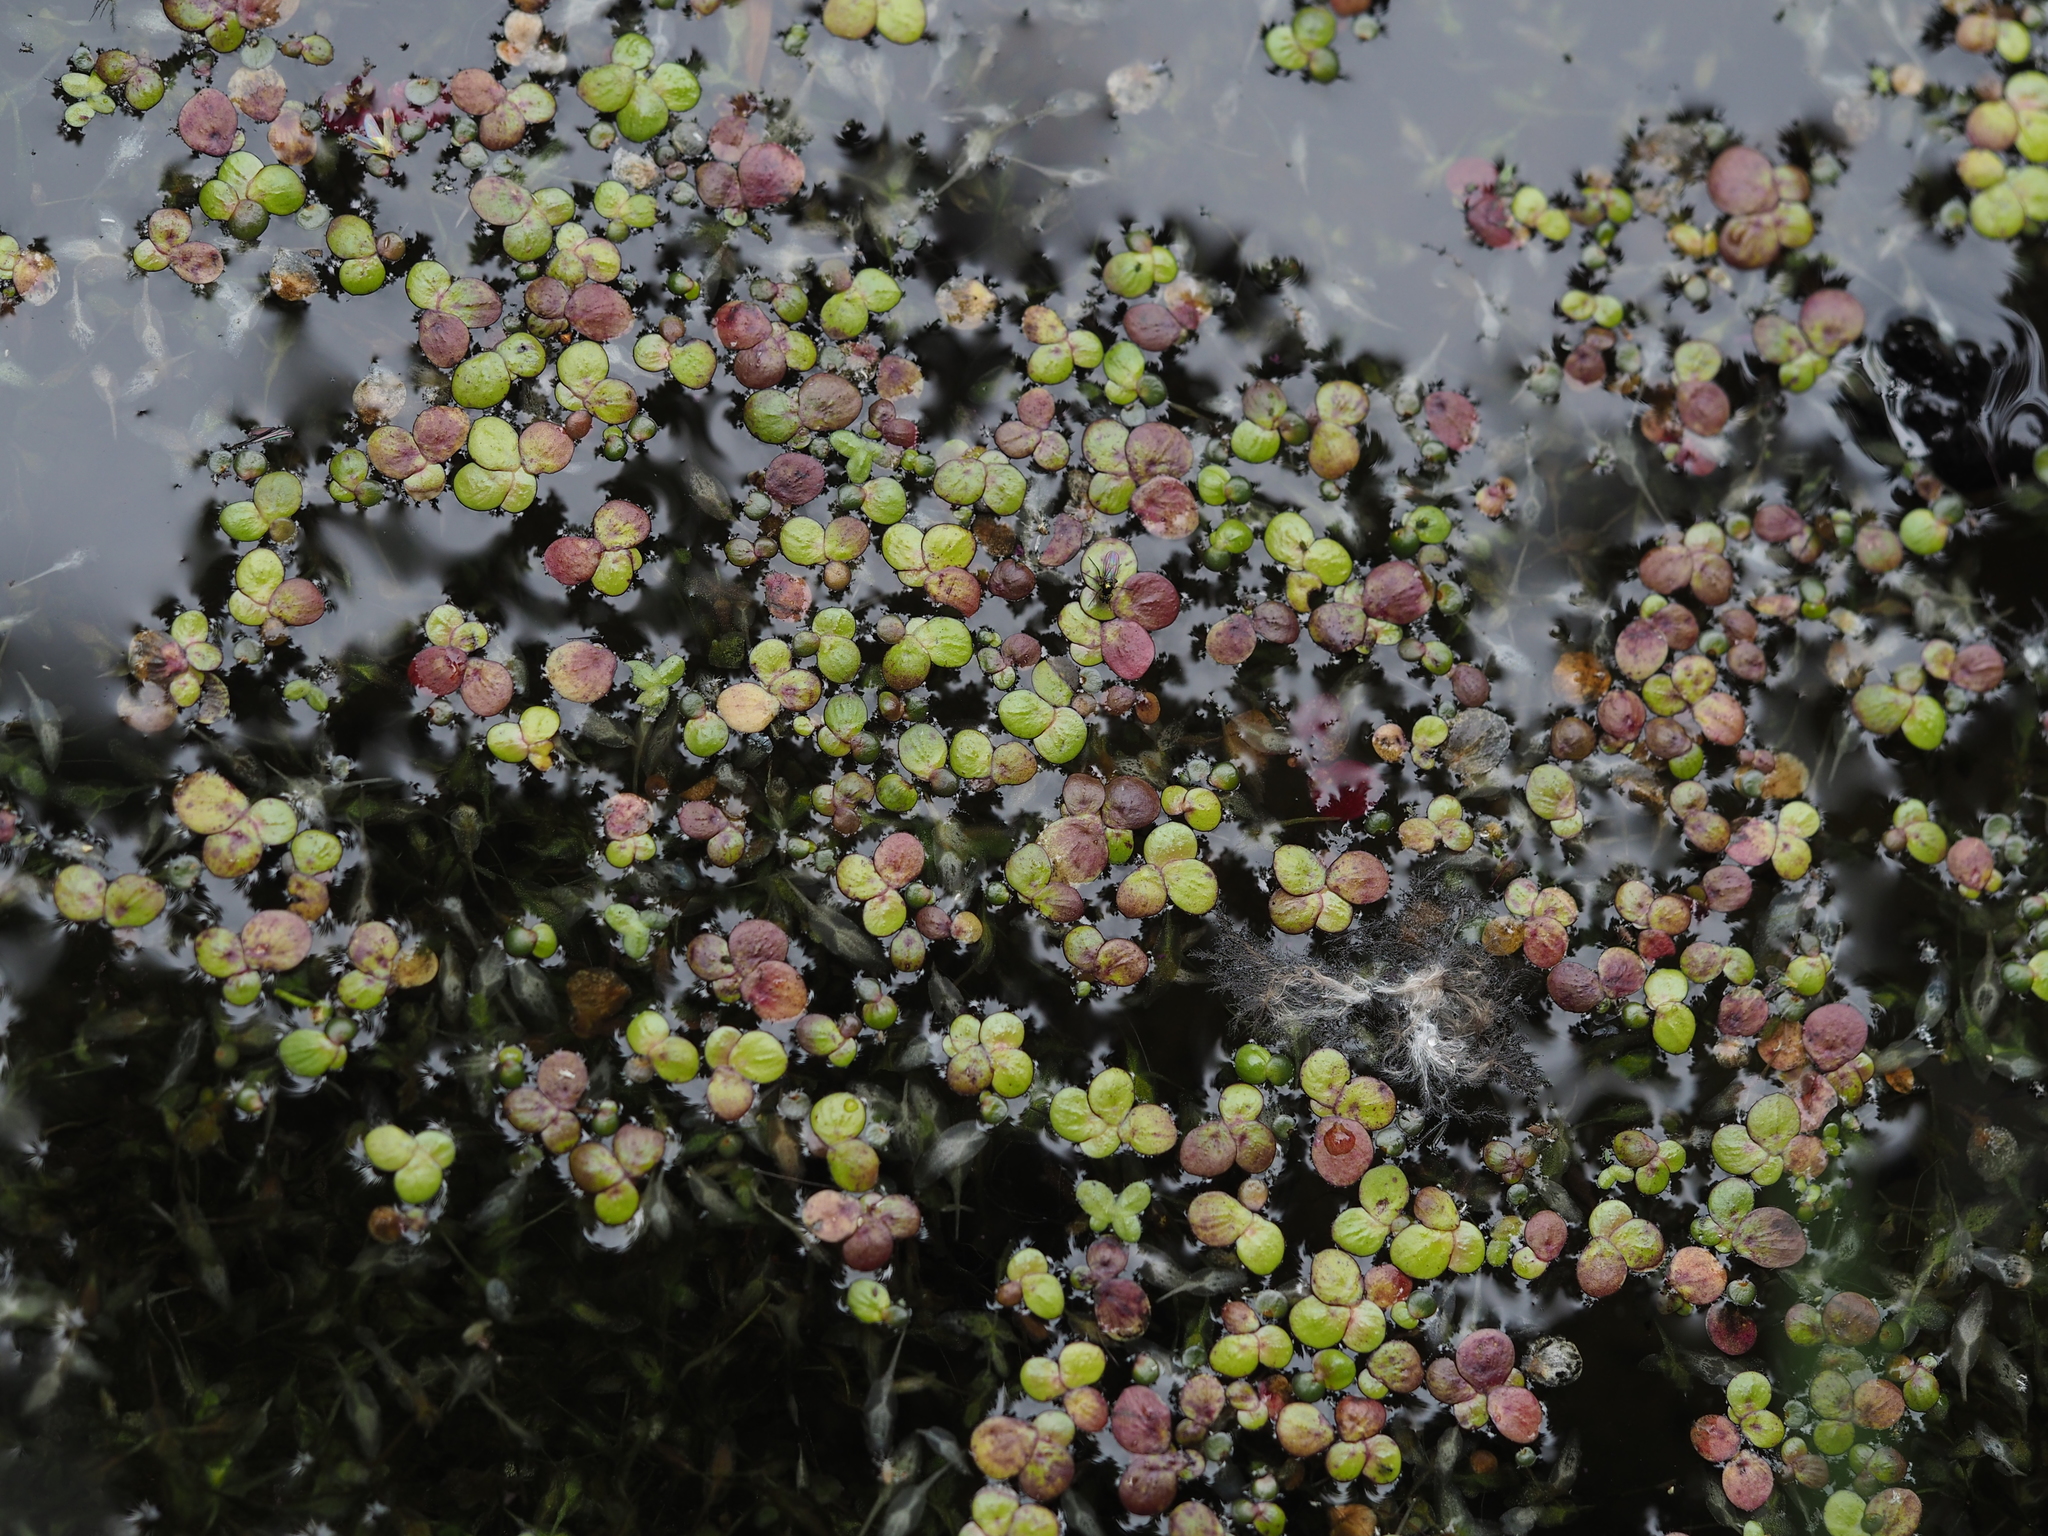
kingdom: Plantae
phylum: Tracheophyta
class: Liliopsida
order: Alismatales
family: Araceae
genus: Spirodela
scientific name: Spirodela polyrhiza
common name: Great duckweed
